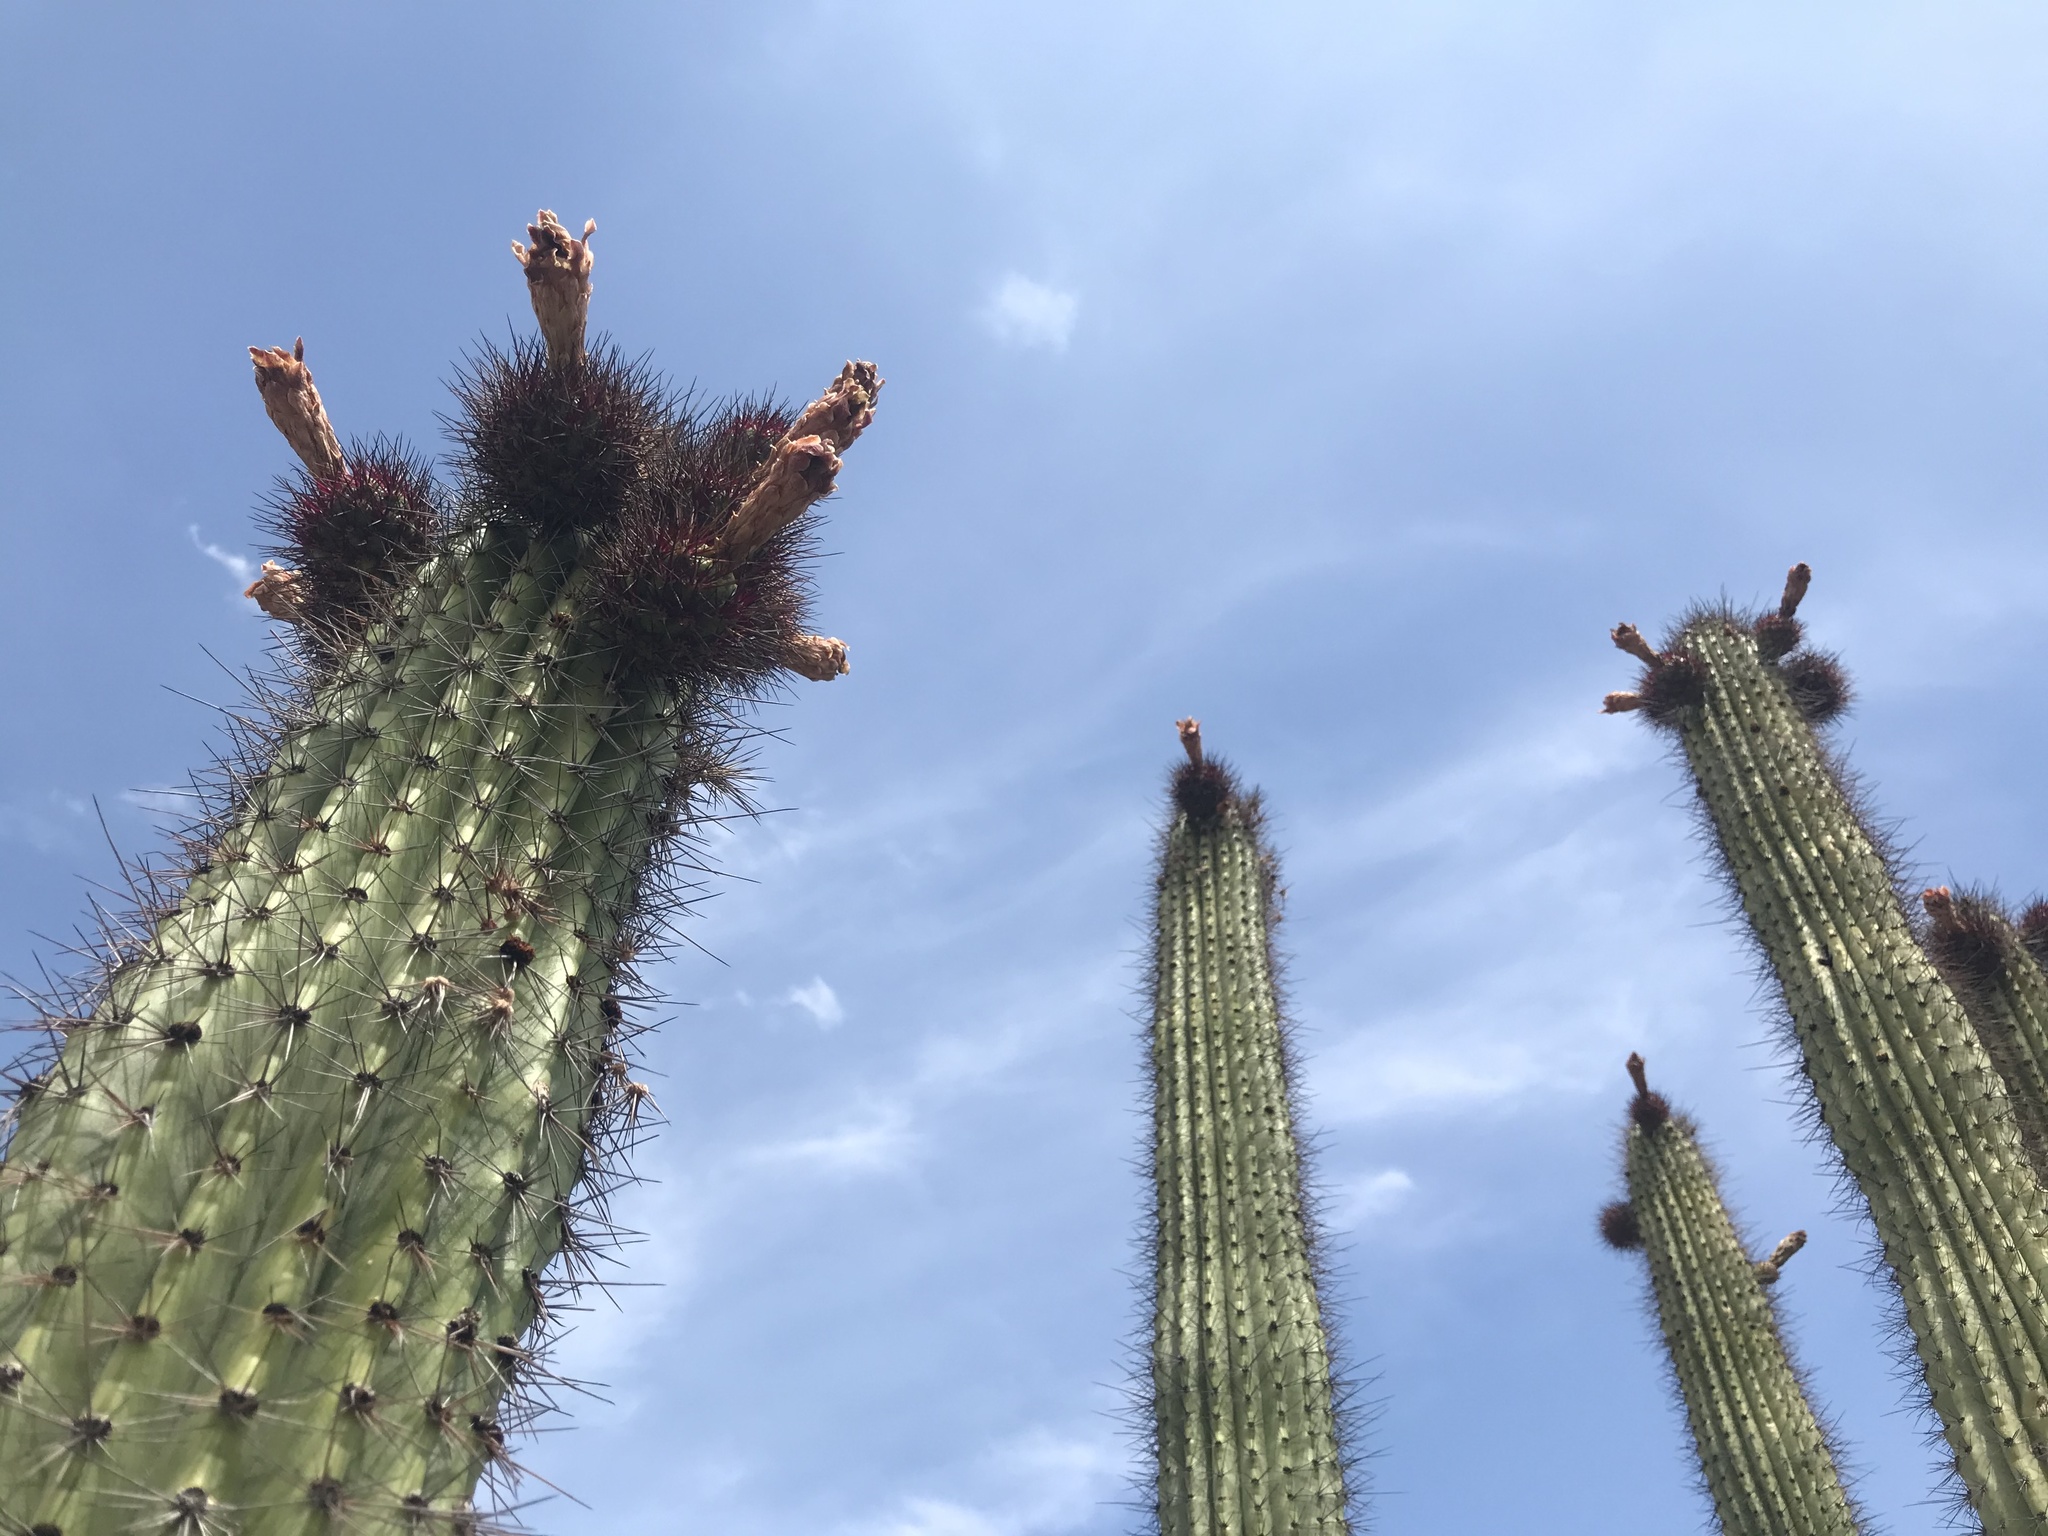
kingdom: Plantae
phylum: Tracheophyta
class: Magnoliopsida
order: Caryophyllales
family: Cactaceae
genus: Stenocereus
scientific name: Stenocereus thurberi
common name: Organ pipe cactus
